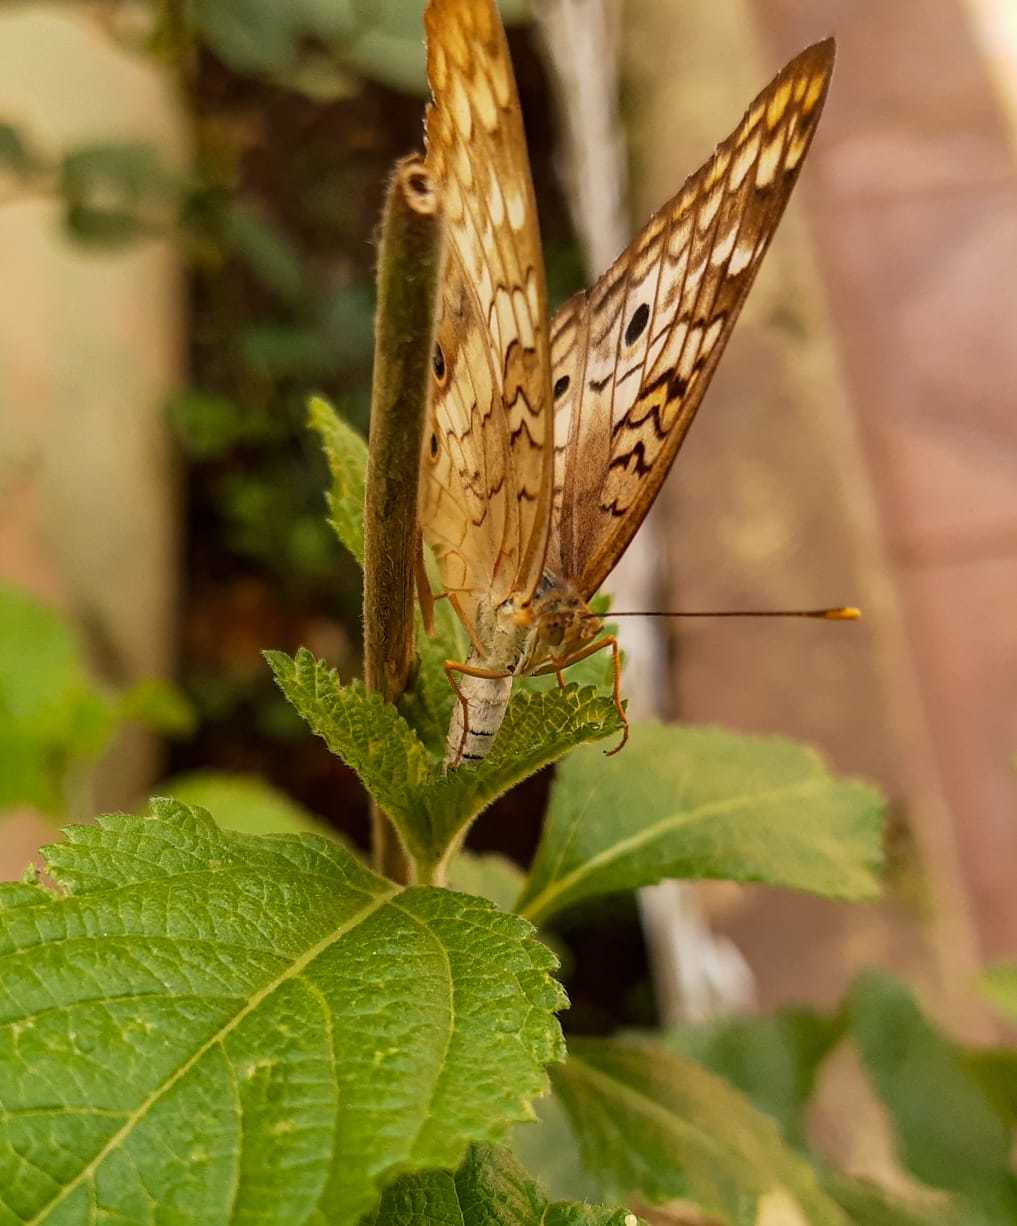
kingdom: Animalia
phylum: Arthropoda
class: Insecta
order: Lepidoptera
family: Nymphalidae
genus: Anartia
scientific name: Anartia jatrophae
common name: White peacock
